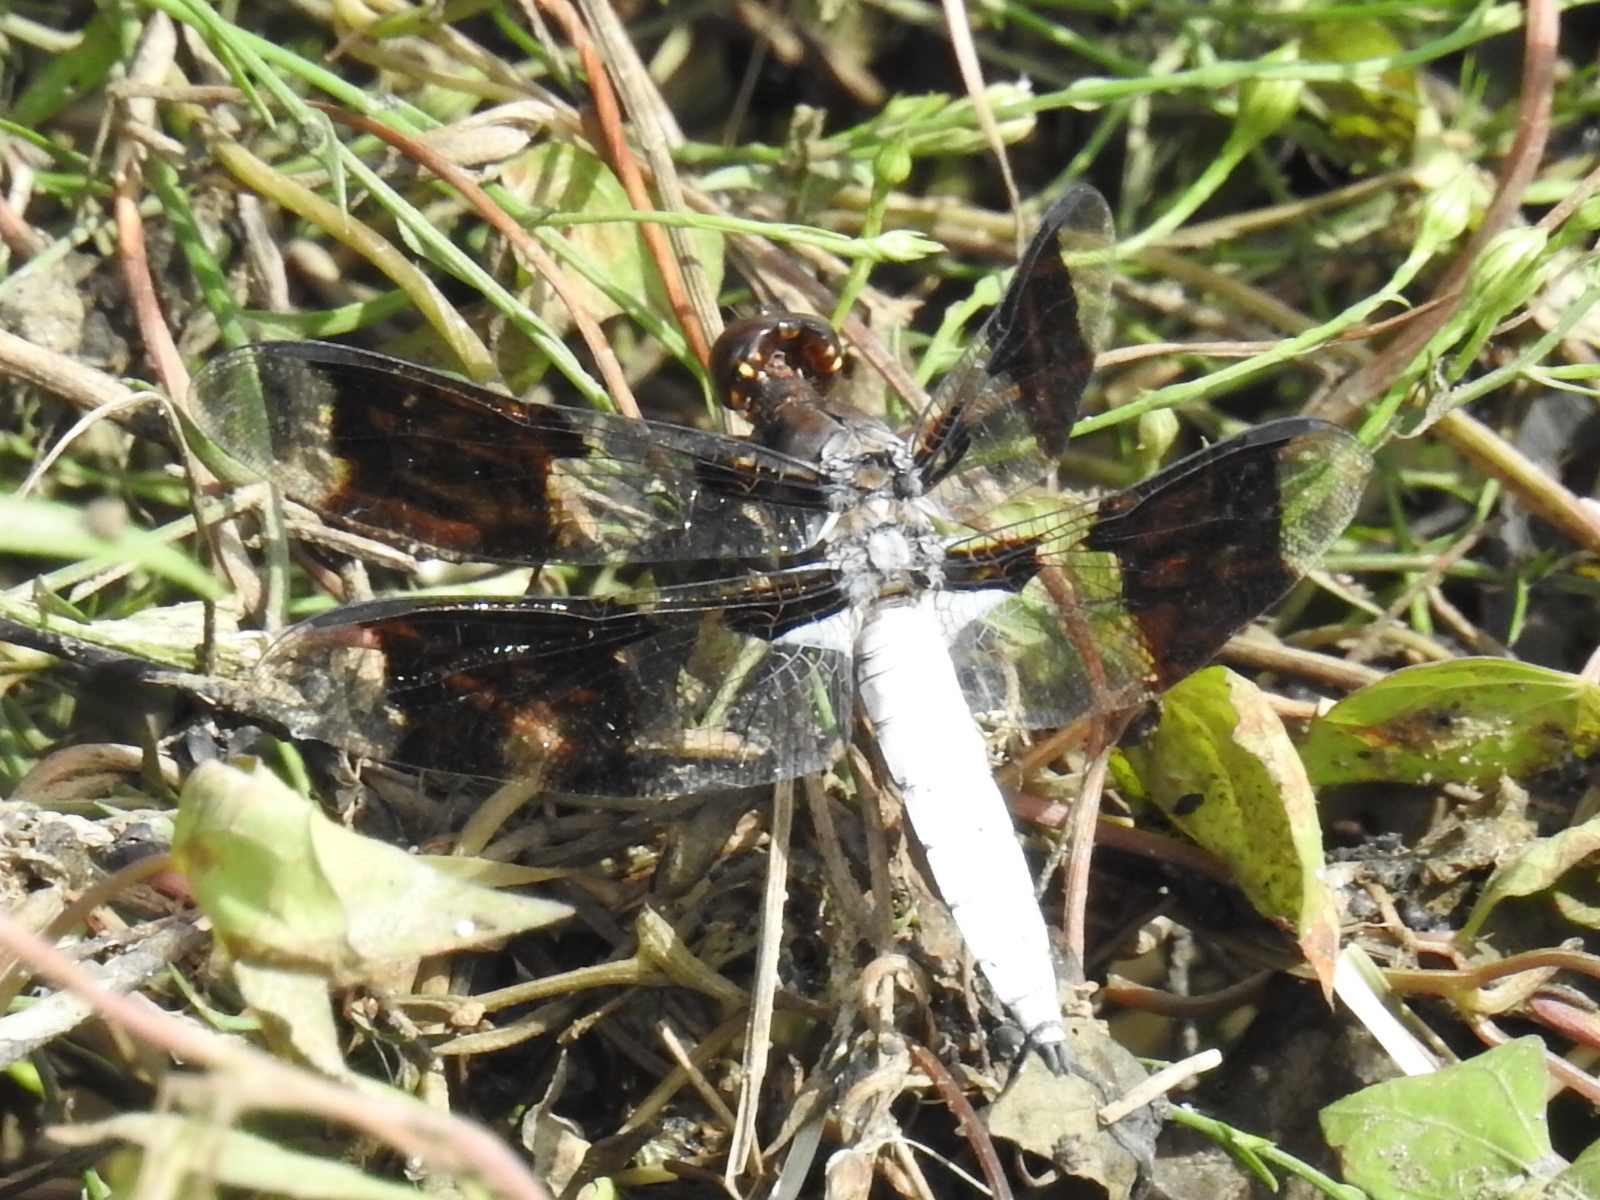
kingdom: Animalia
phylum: Arthropoda
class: Insecta
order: Odonata
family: Libellulidae
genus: Plathemis
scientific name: Plathemis lydia
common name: Common whitetail
